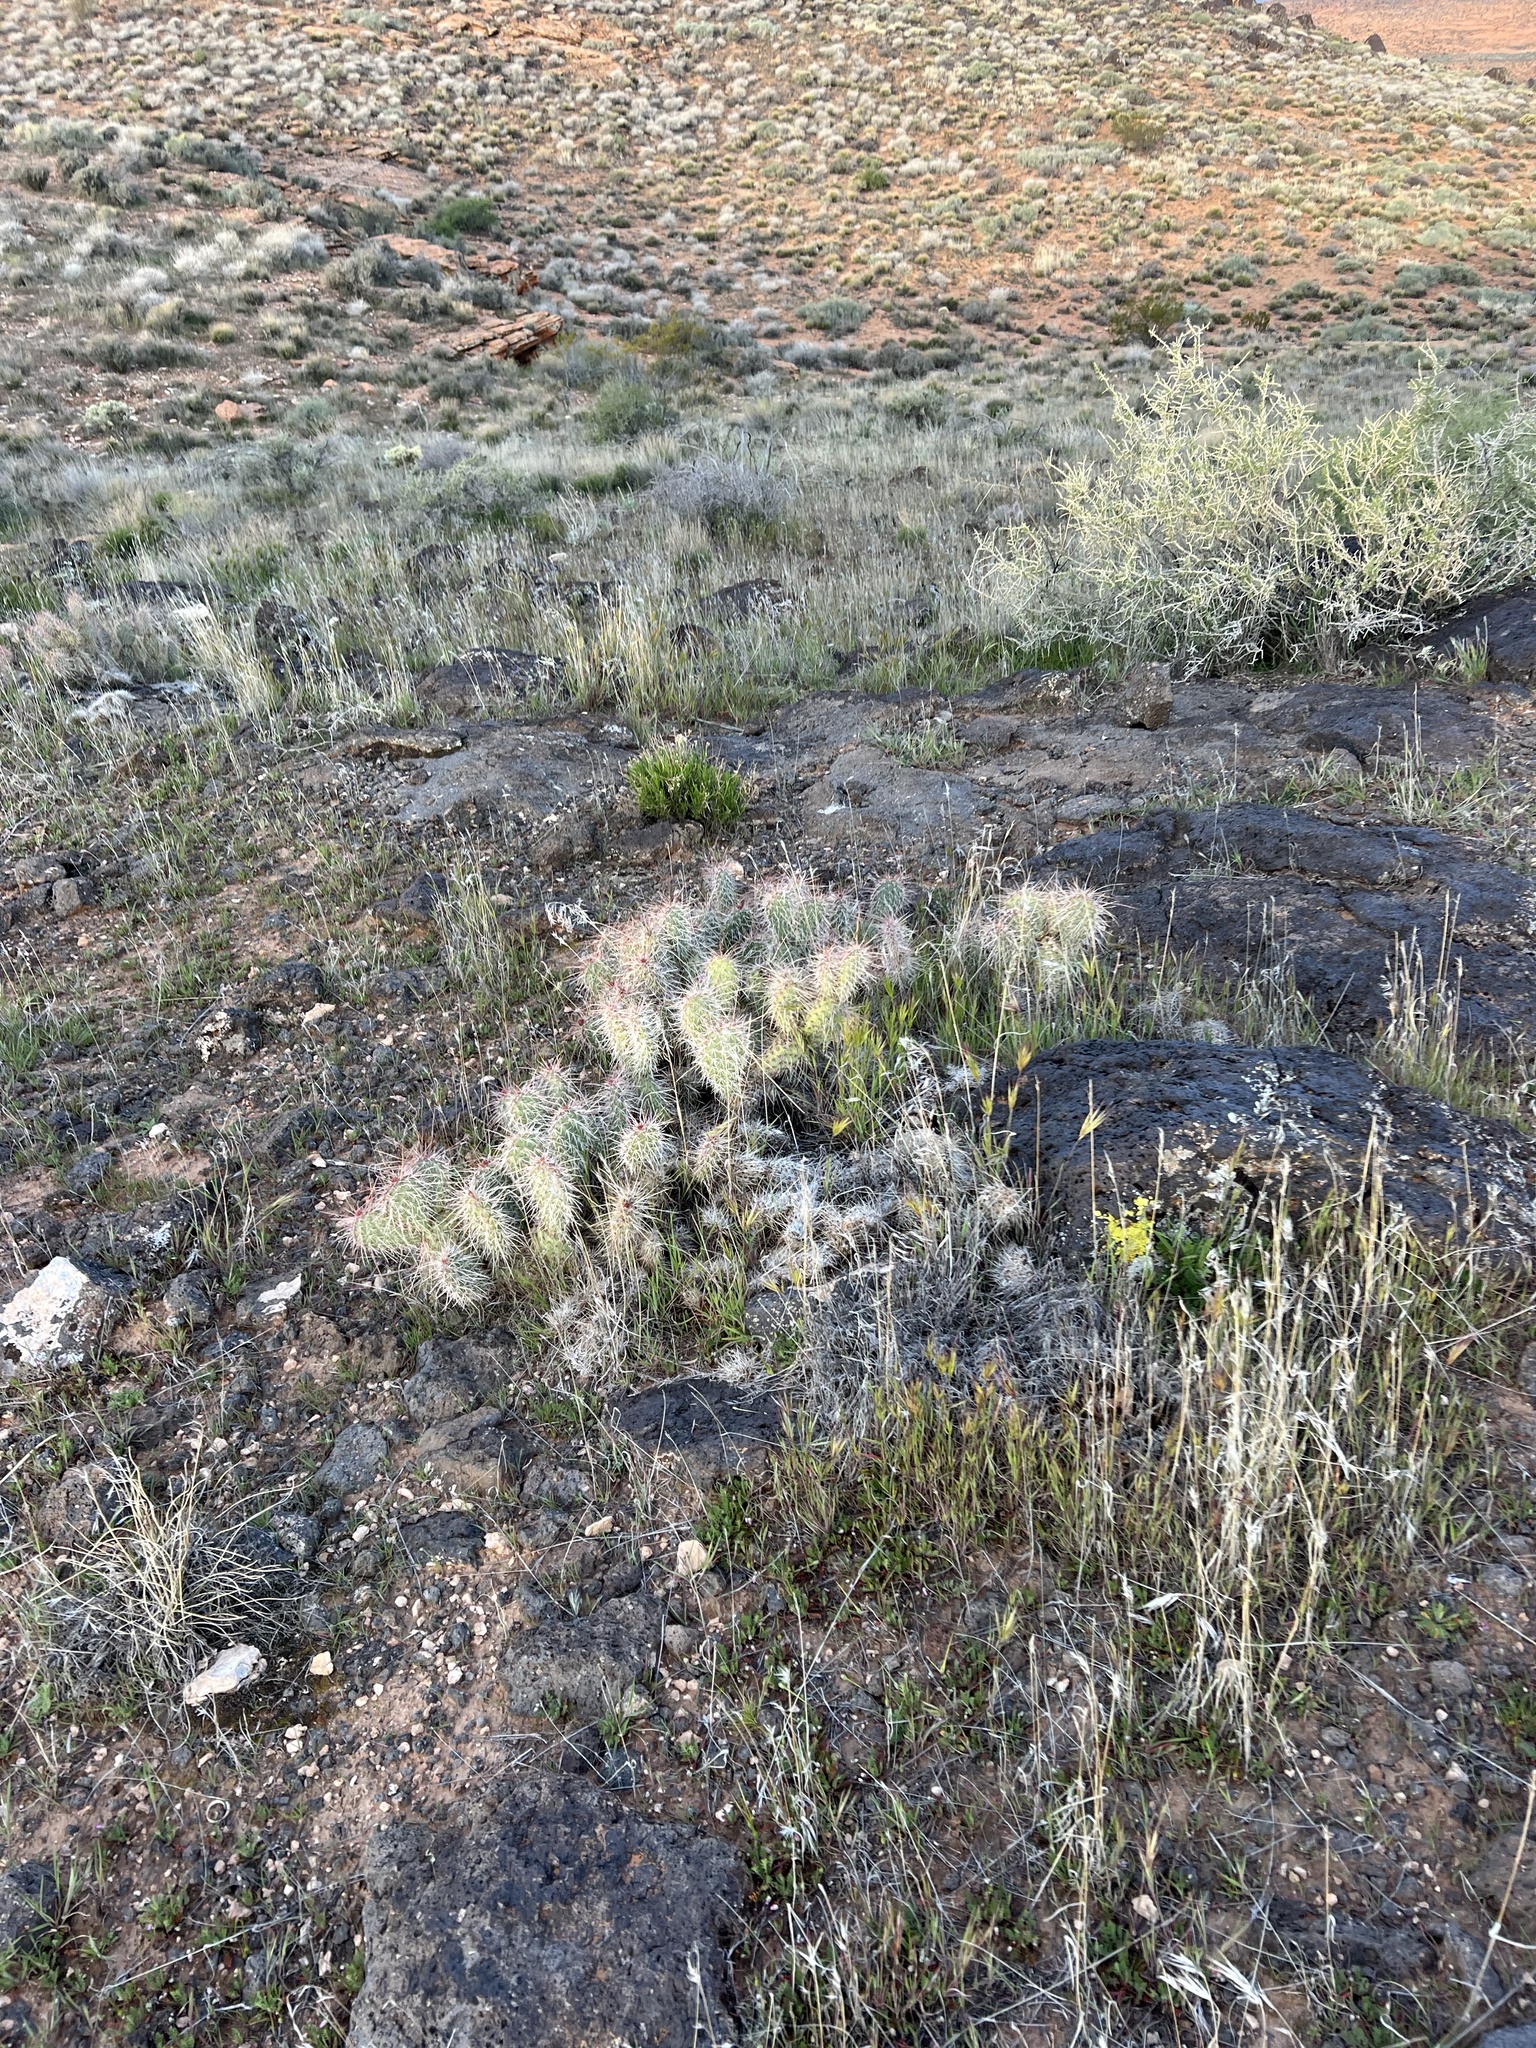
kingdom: Plantae
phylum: Tracheophyta
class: Magnoliopsida
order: Caryophyllales
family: Cactaceae
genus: Opuntia
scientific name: Opuntia polyacantha
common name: Plains prickly-pear
